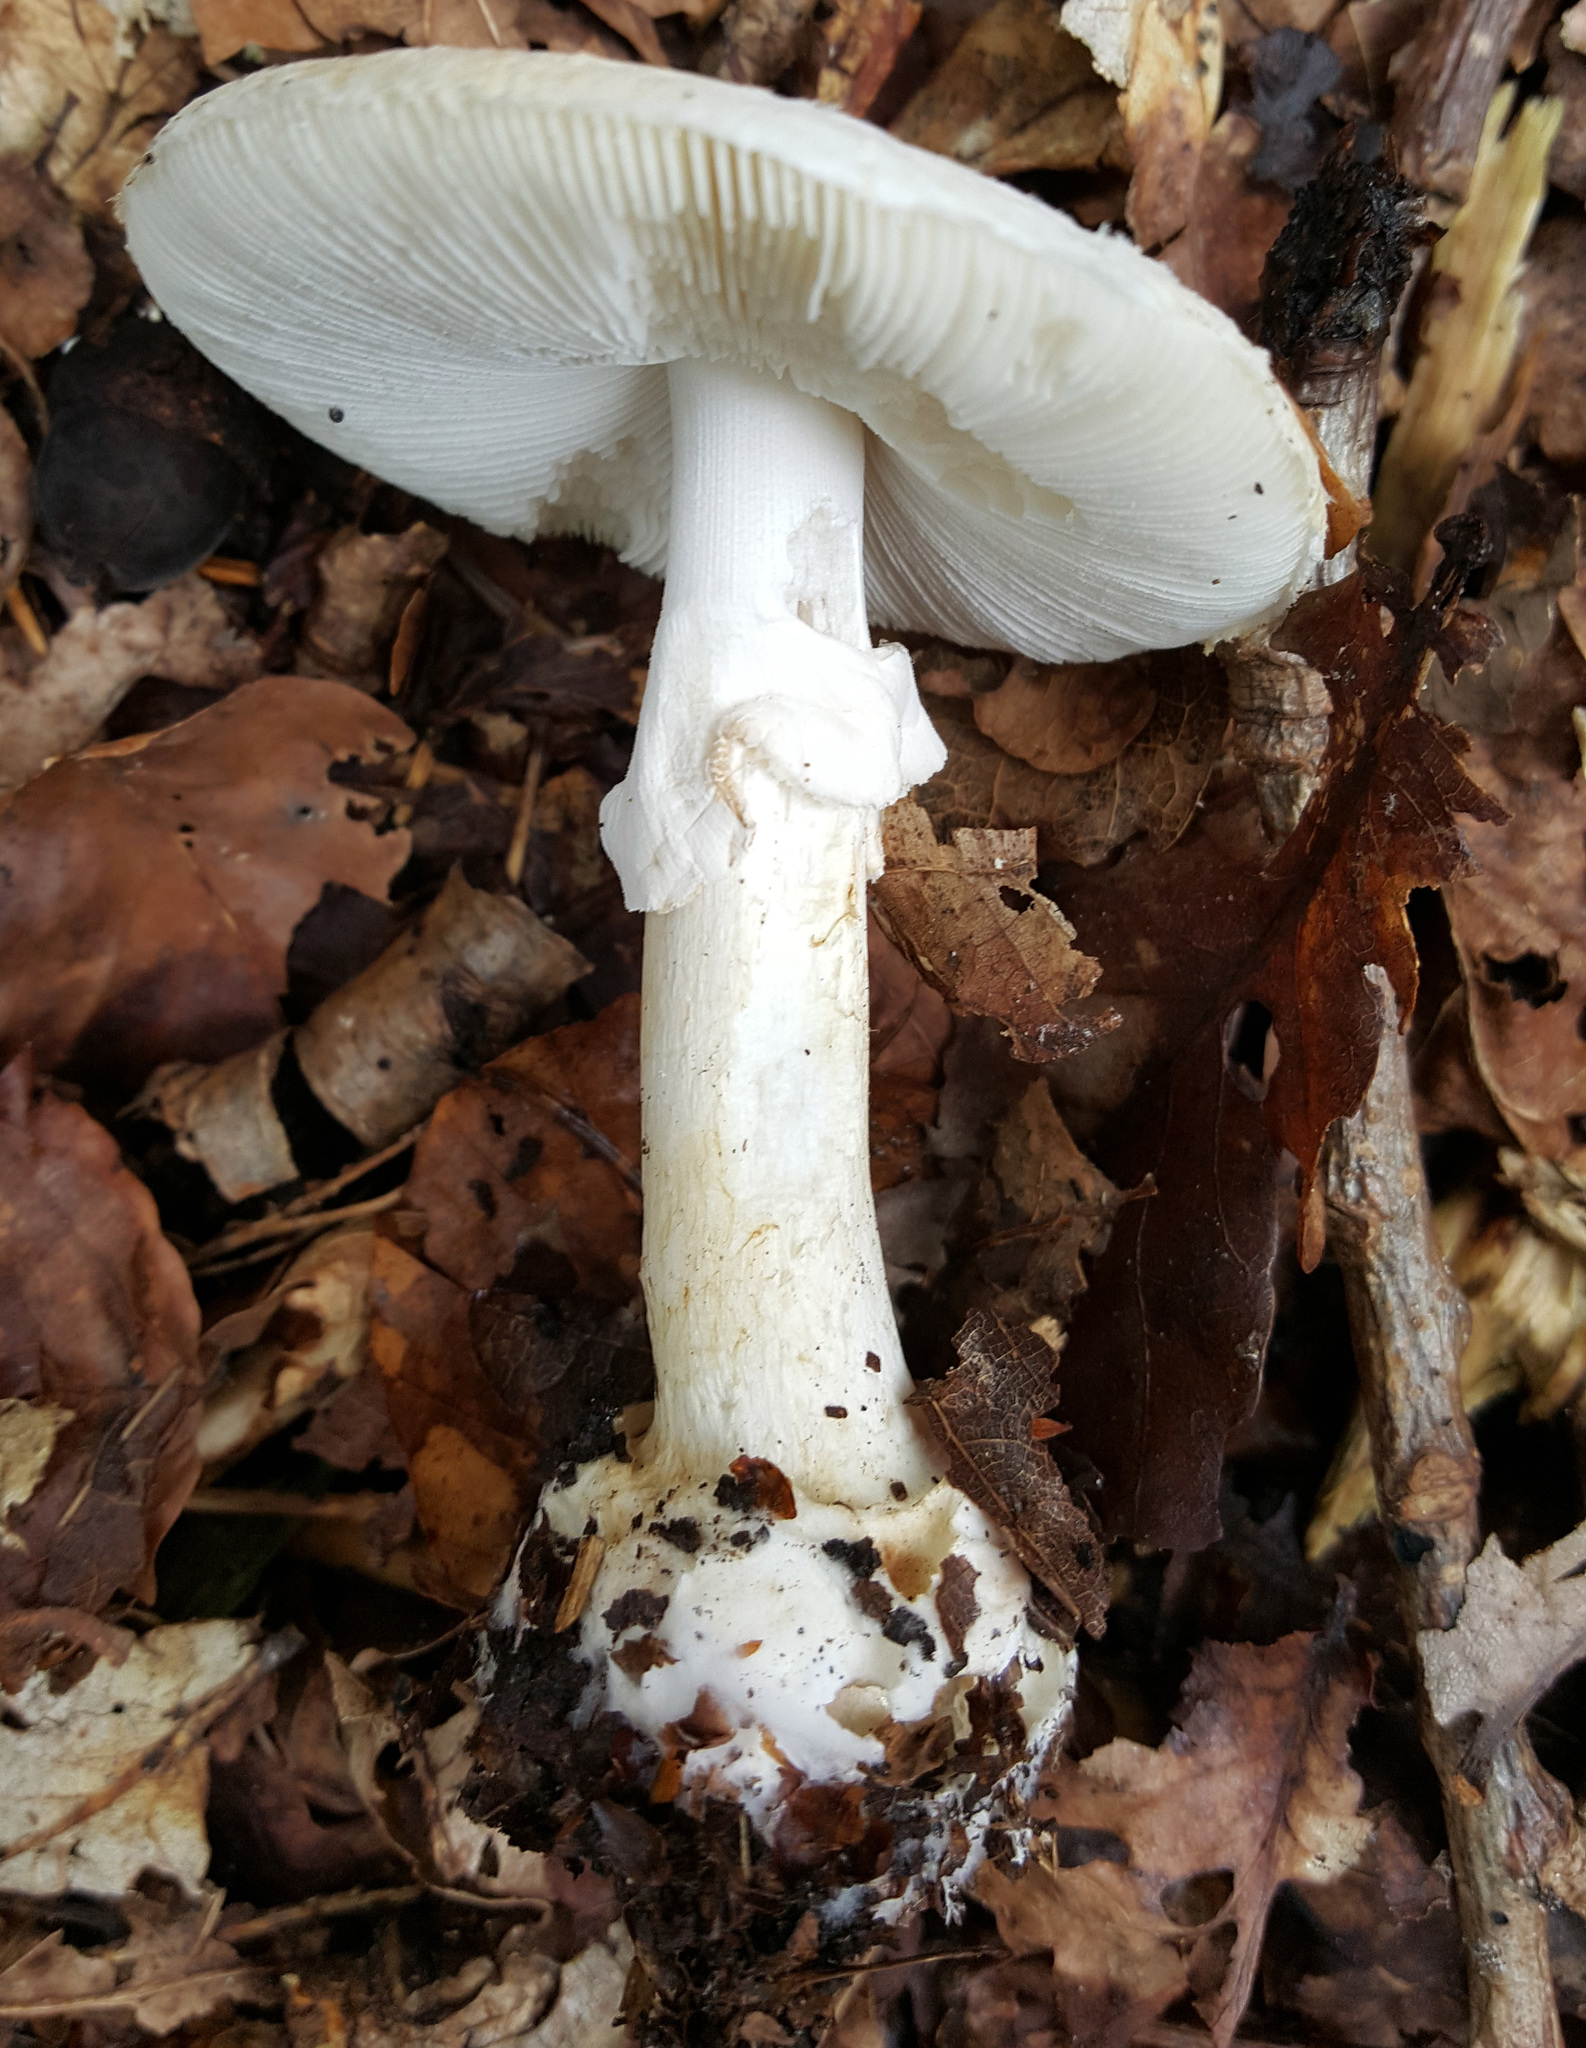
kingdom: Fungi
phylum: Basidiomycota
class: Agaricomycetes
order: Agaricales
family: Amanitaceae
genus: Amanita
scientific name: Amanita citrina
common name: False death-cap
